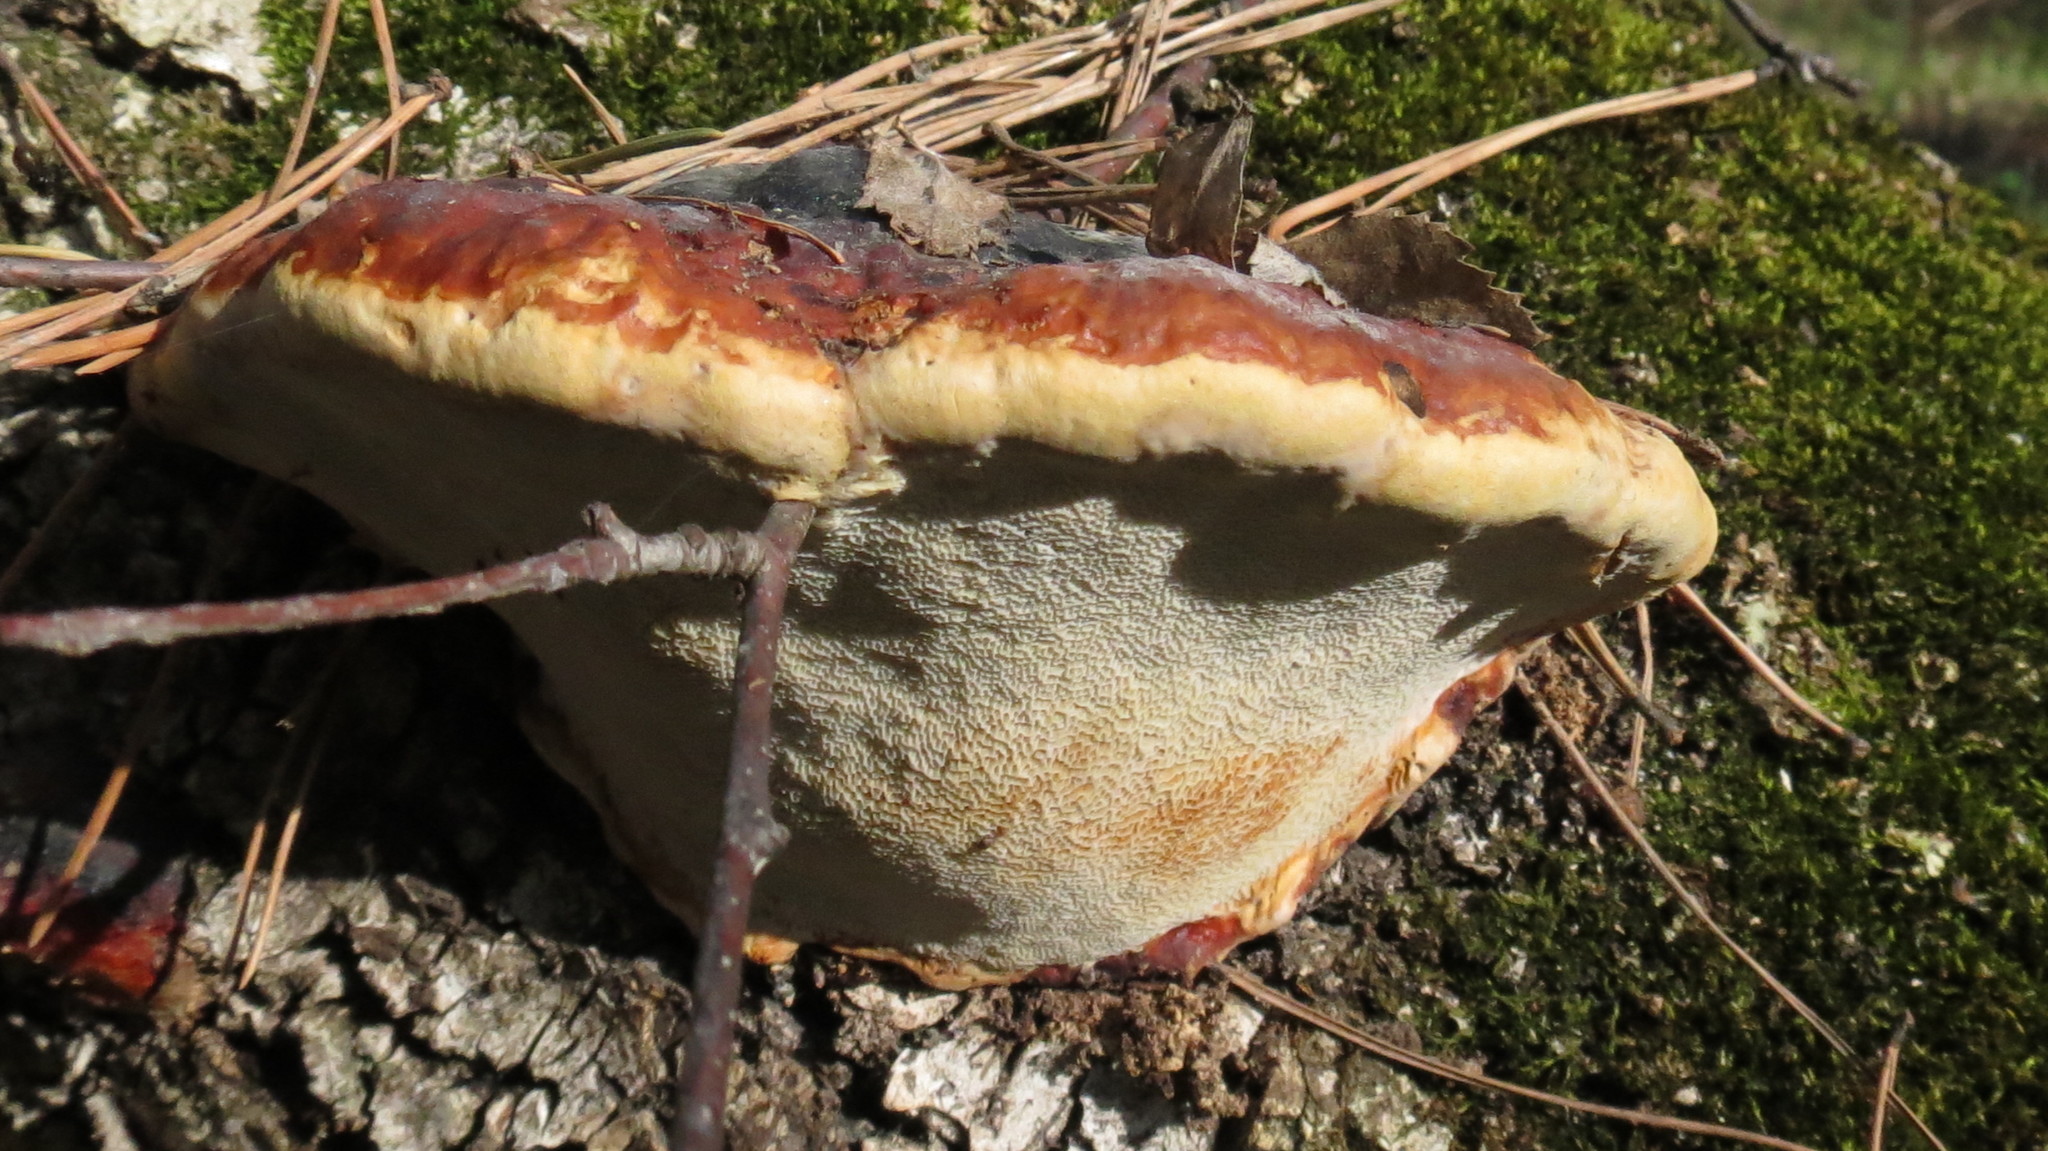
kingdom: Fungi
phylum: Basidiomycota
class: Agaricomycetes
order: Polyporales
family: Fomitopsidaceae
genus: Fomitopsis
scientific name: Fomitopsis pinicola
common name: Red-belted bracket
